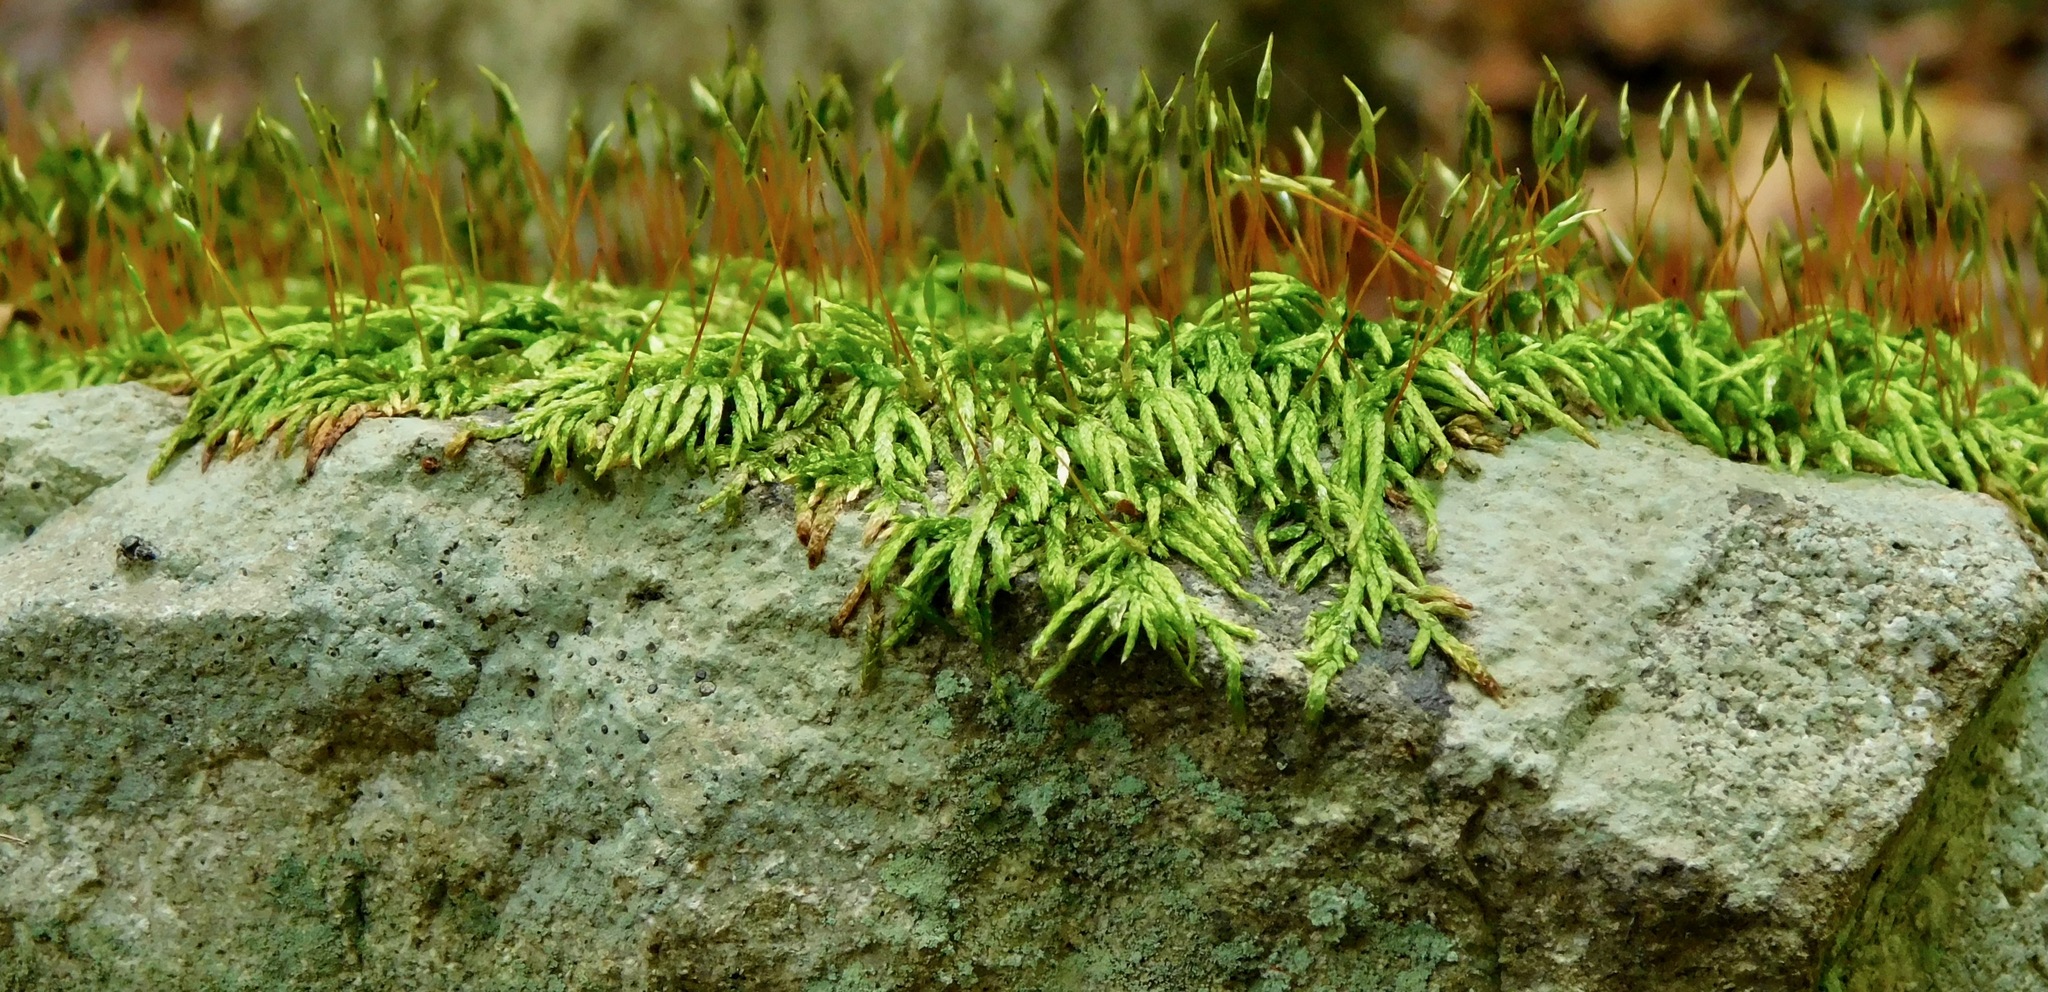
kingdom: Plantae
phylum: Bryophyta
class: Bryopsida
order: Hypnales
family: Entodontaceae
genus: Entodon
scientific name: Entodon seductrix
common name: Round-stemmed entodon moss
